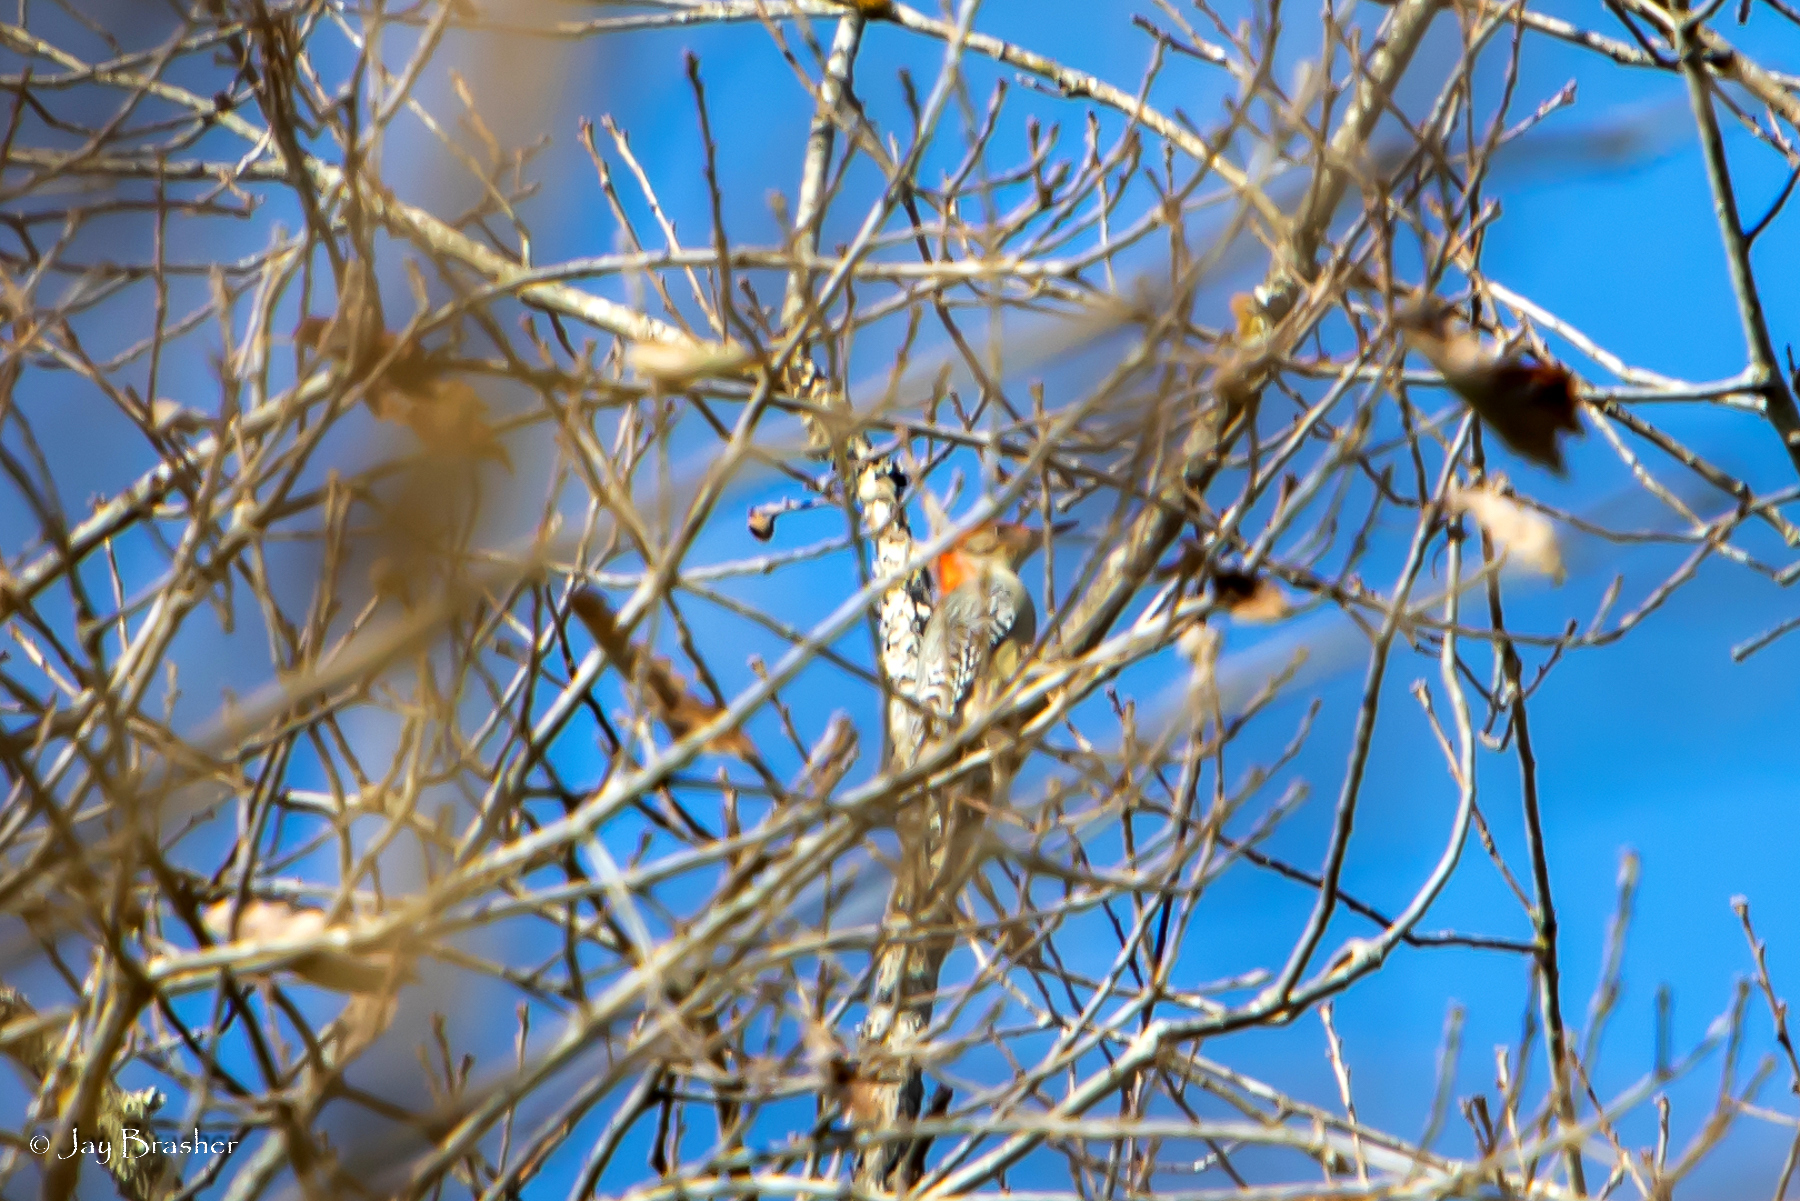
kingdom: Animalia
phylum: Chordata
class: Aves
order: Piciformes
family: Picidae
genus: Melanerpes
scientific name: Melanerpes carolinus
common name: Red-bellied woodpecker
